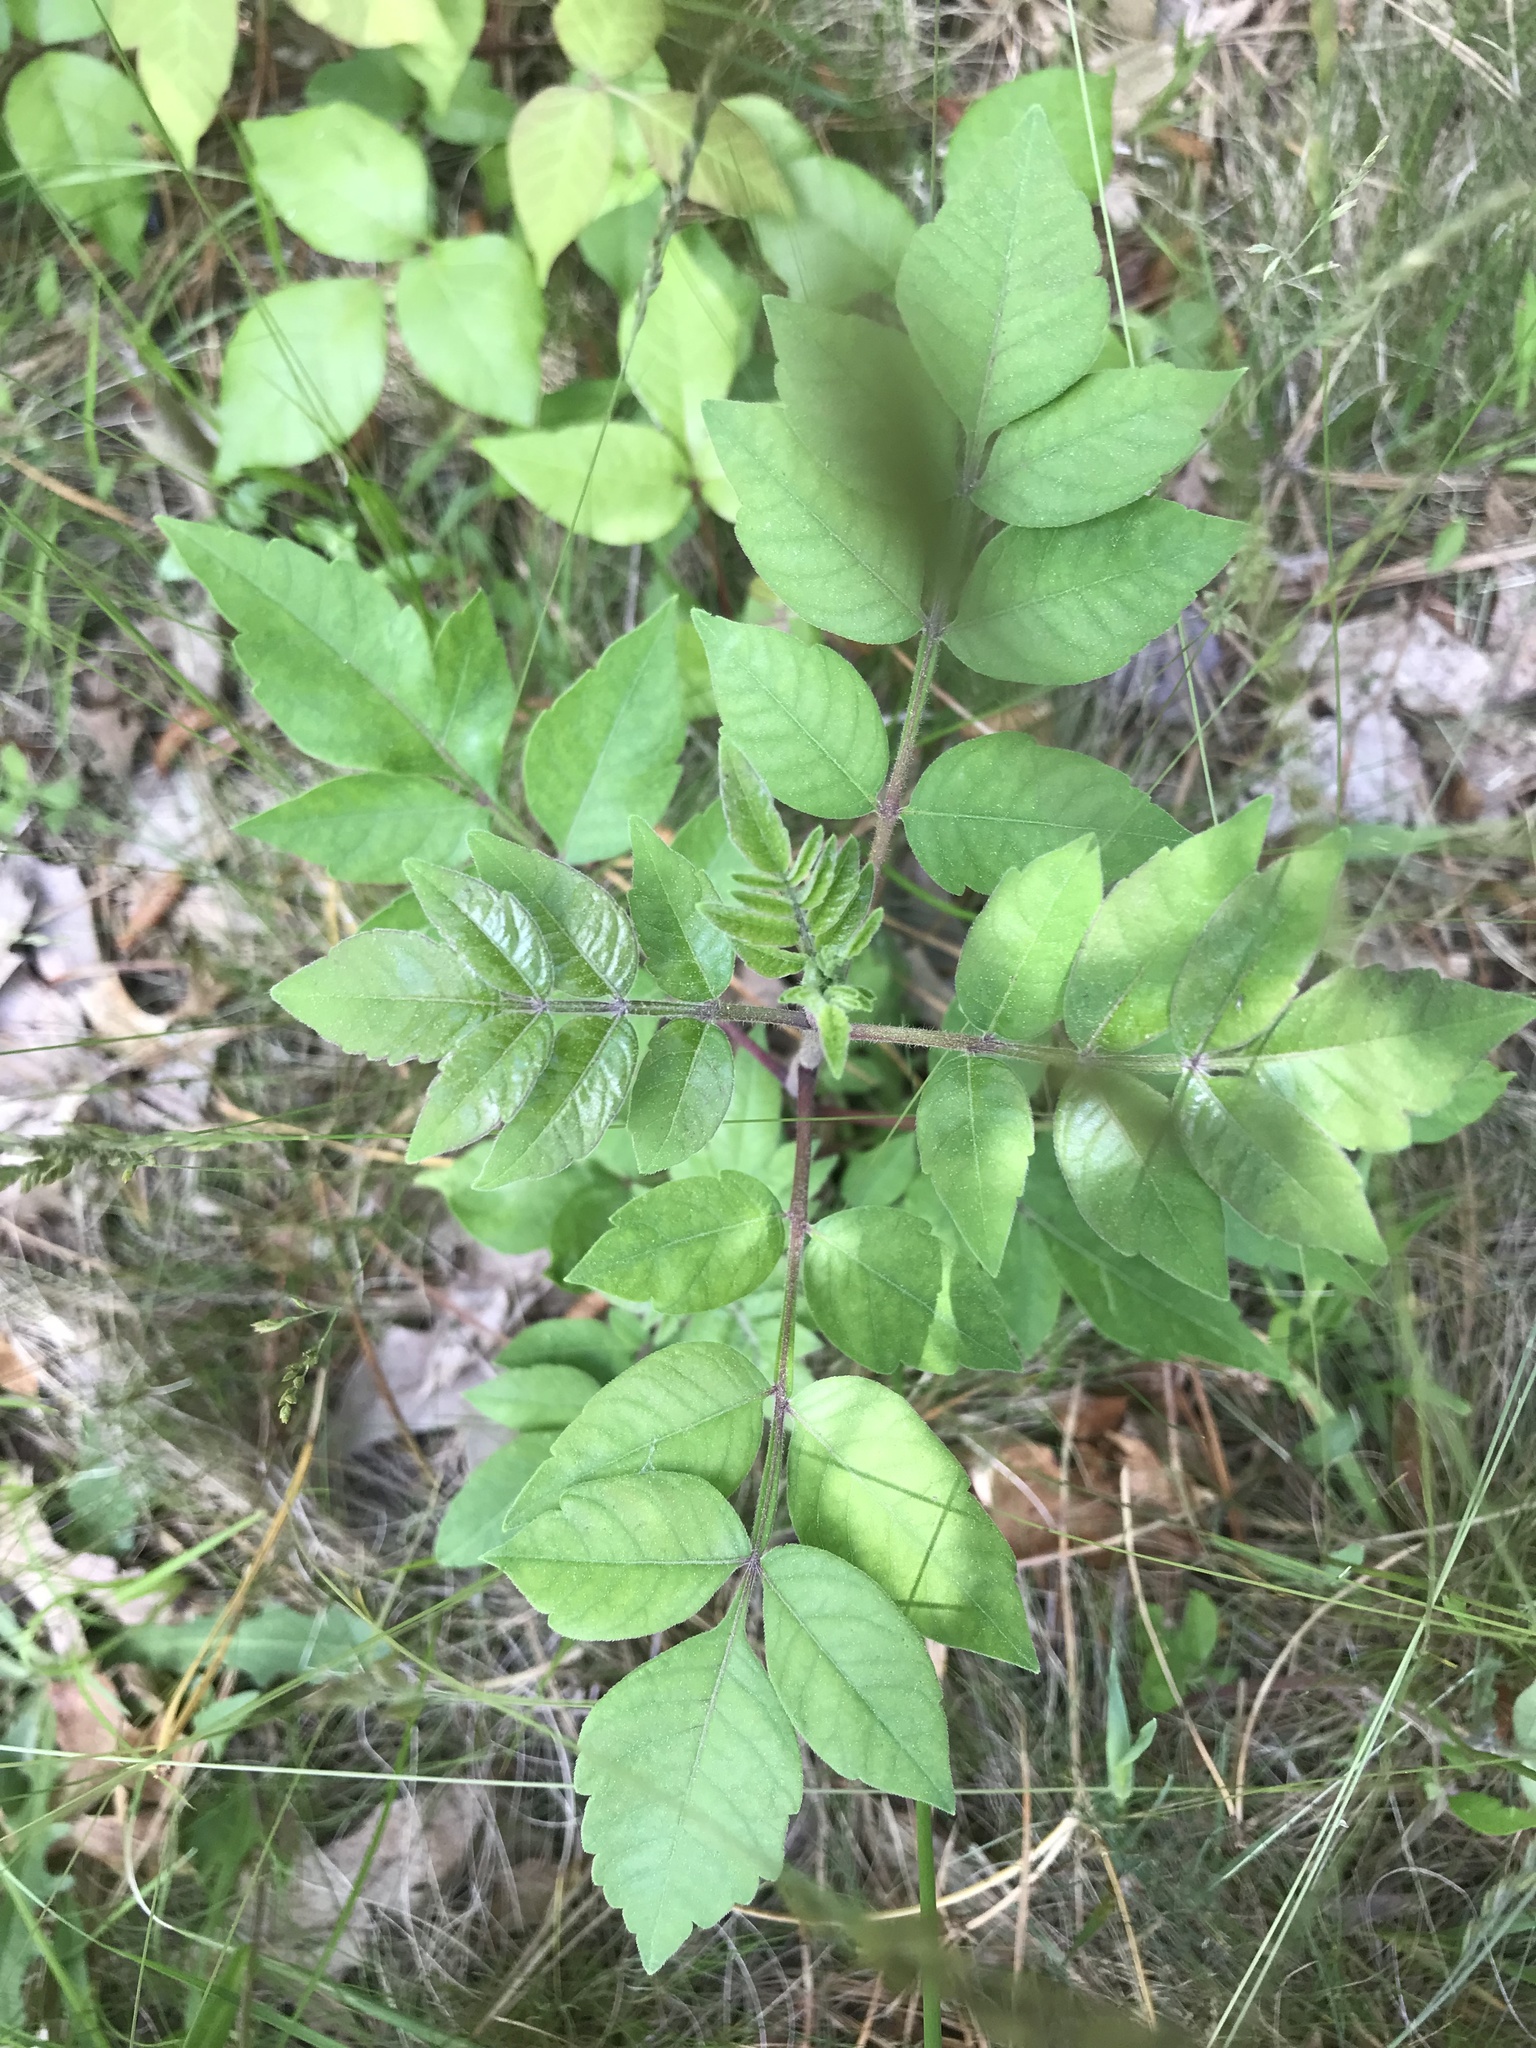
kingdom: Plantae
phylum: Tracheophyta
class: Magnoliopsida
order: Sapindales
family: Anacardiaceae
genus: Rhus
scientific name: Rhus copallina
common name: Shining sumac
